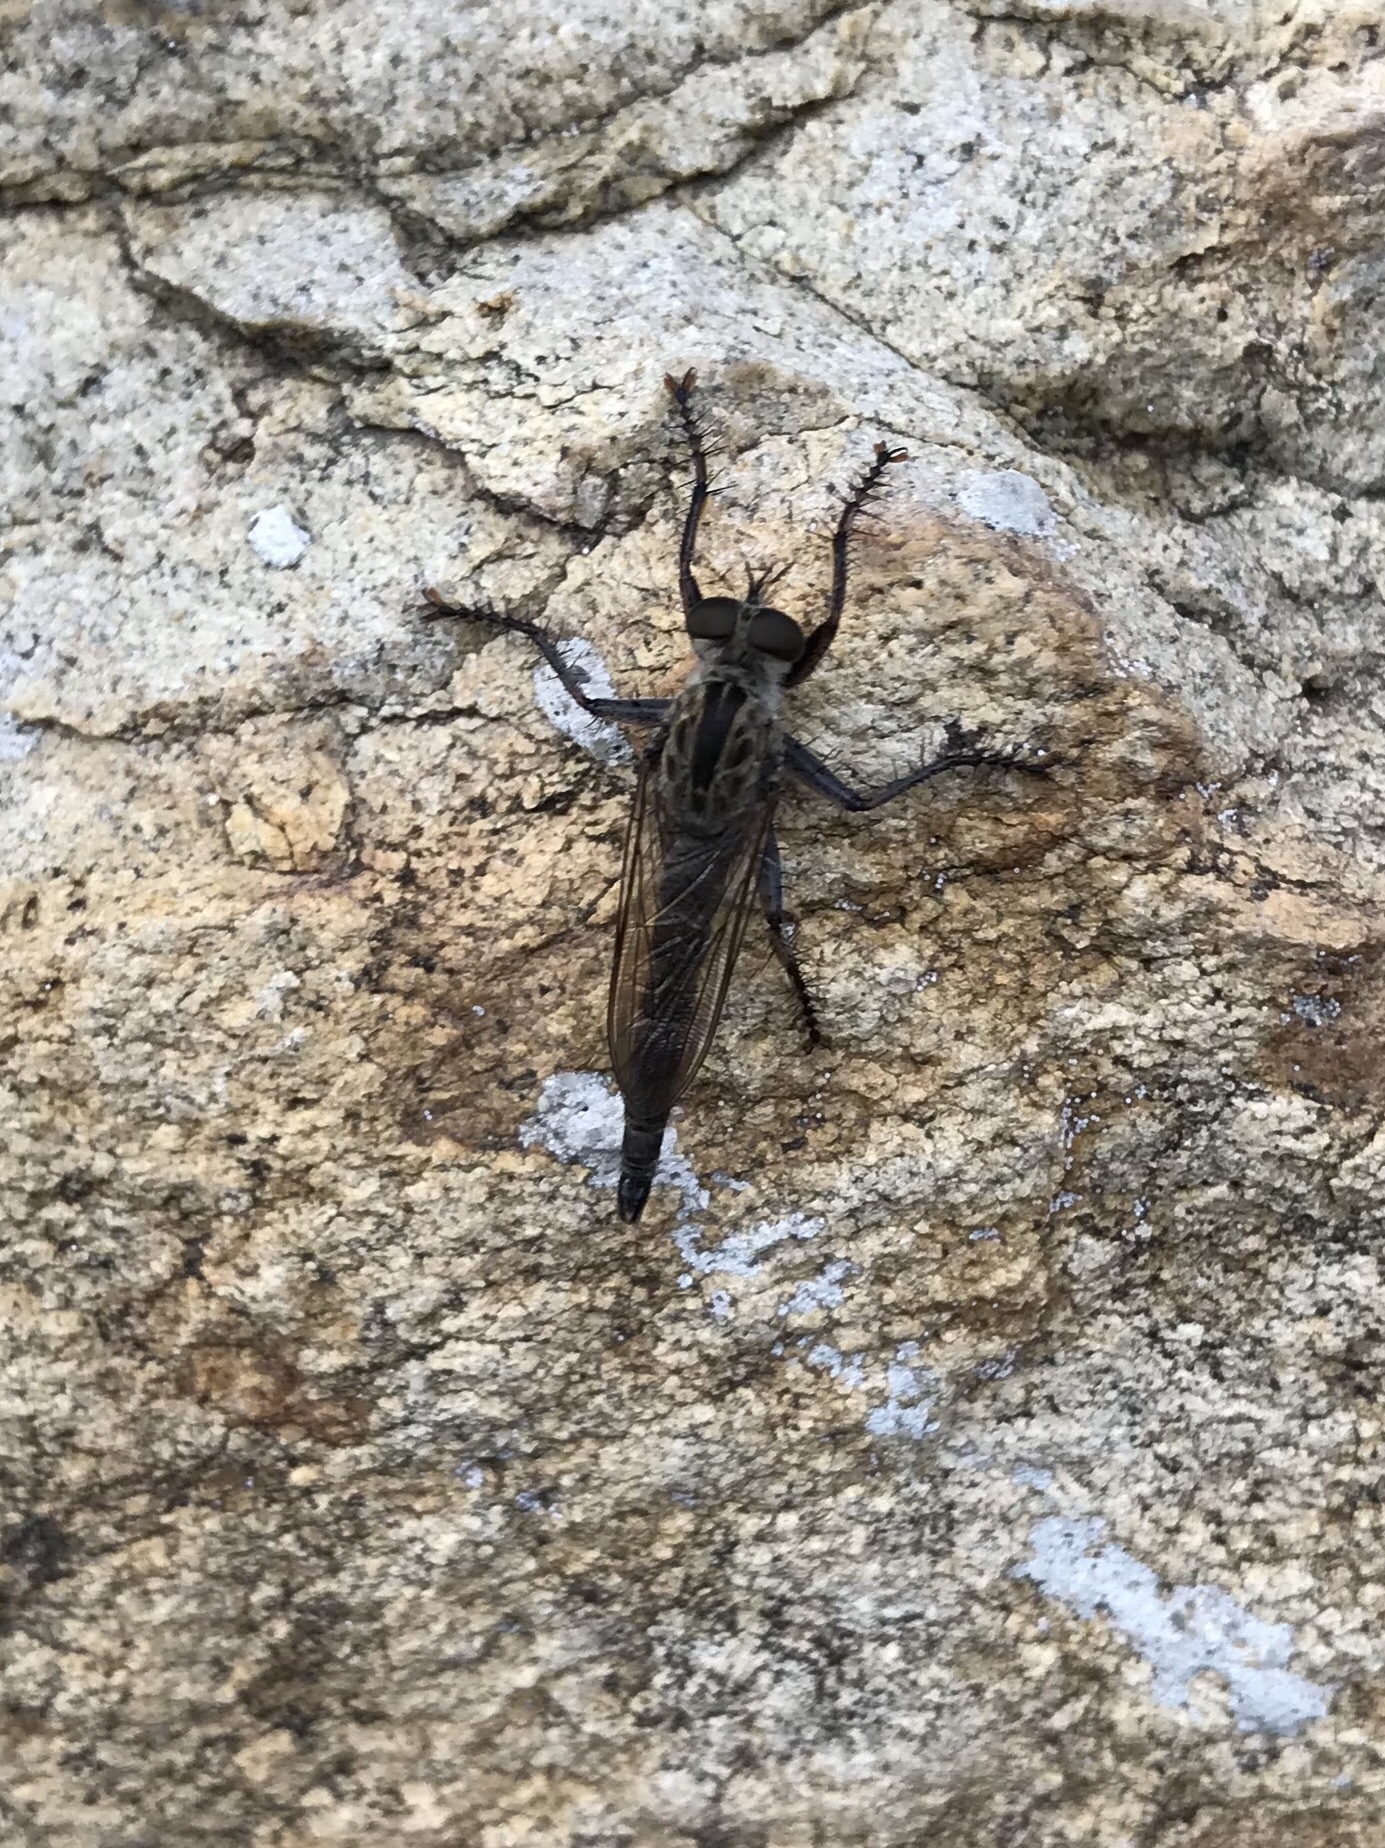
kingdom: Animalia
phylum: Arthropoda
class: Insecta
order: Diptera
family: Asilidae
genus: Machimus
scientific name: Machimus atripes
